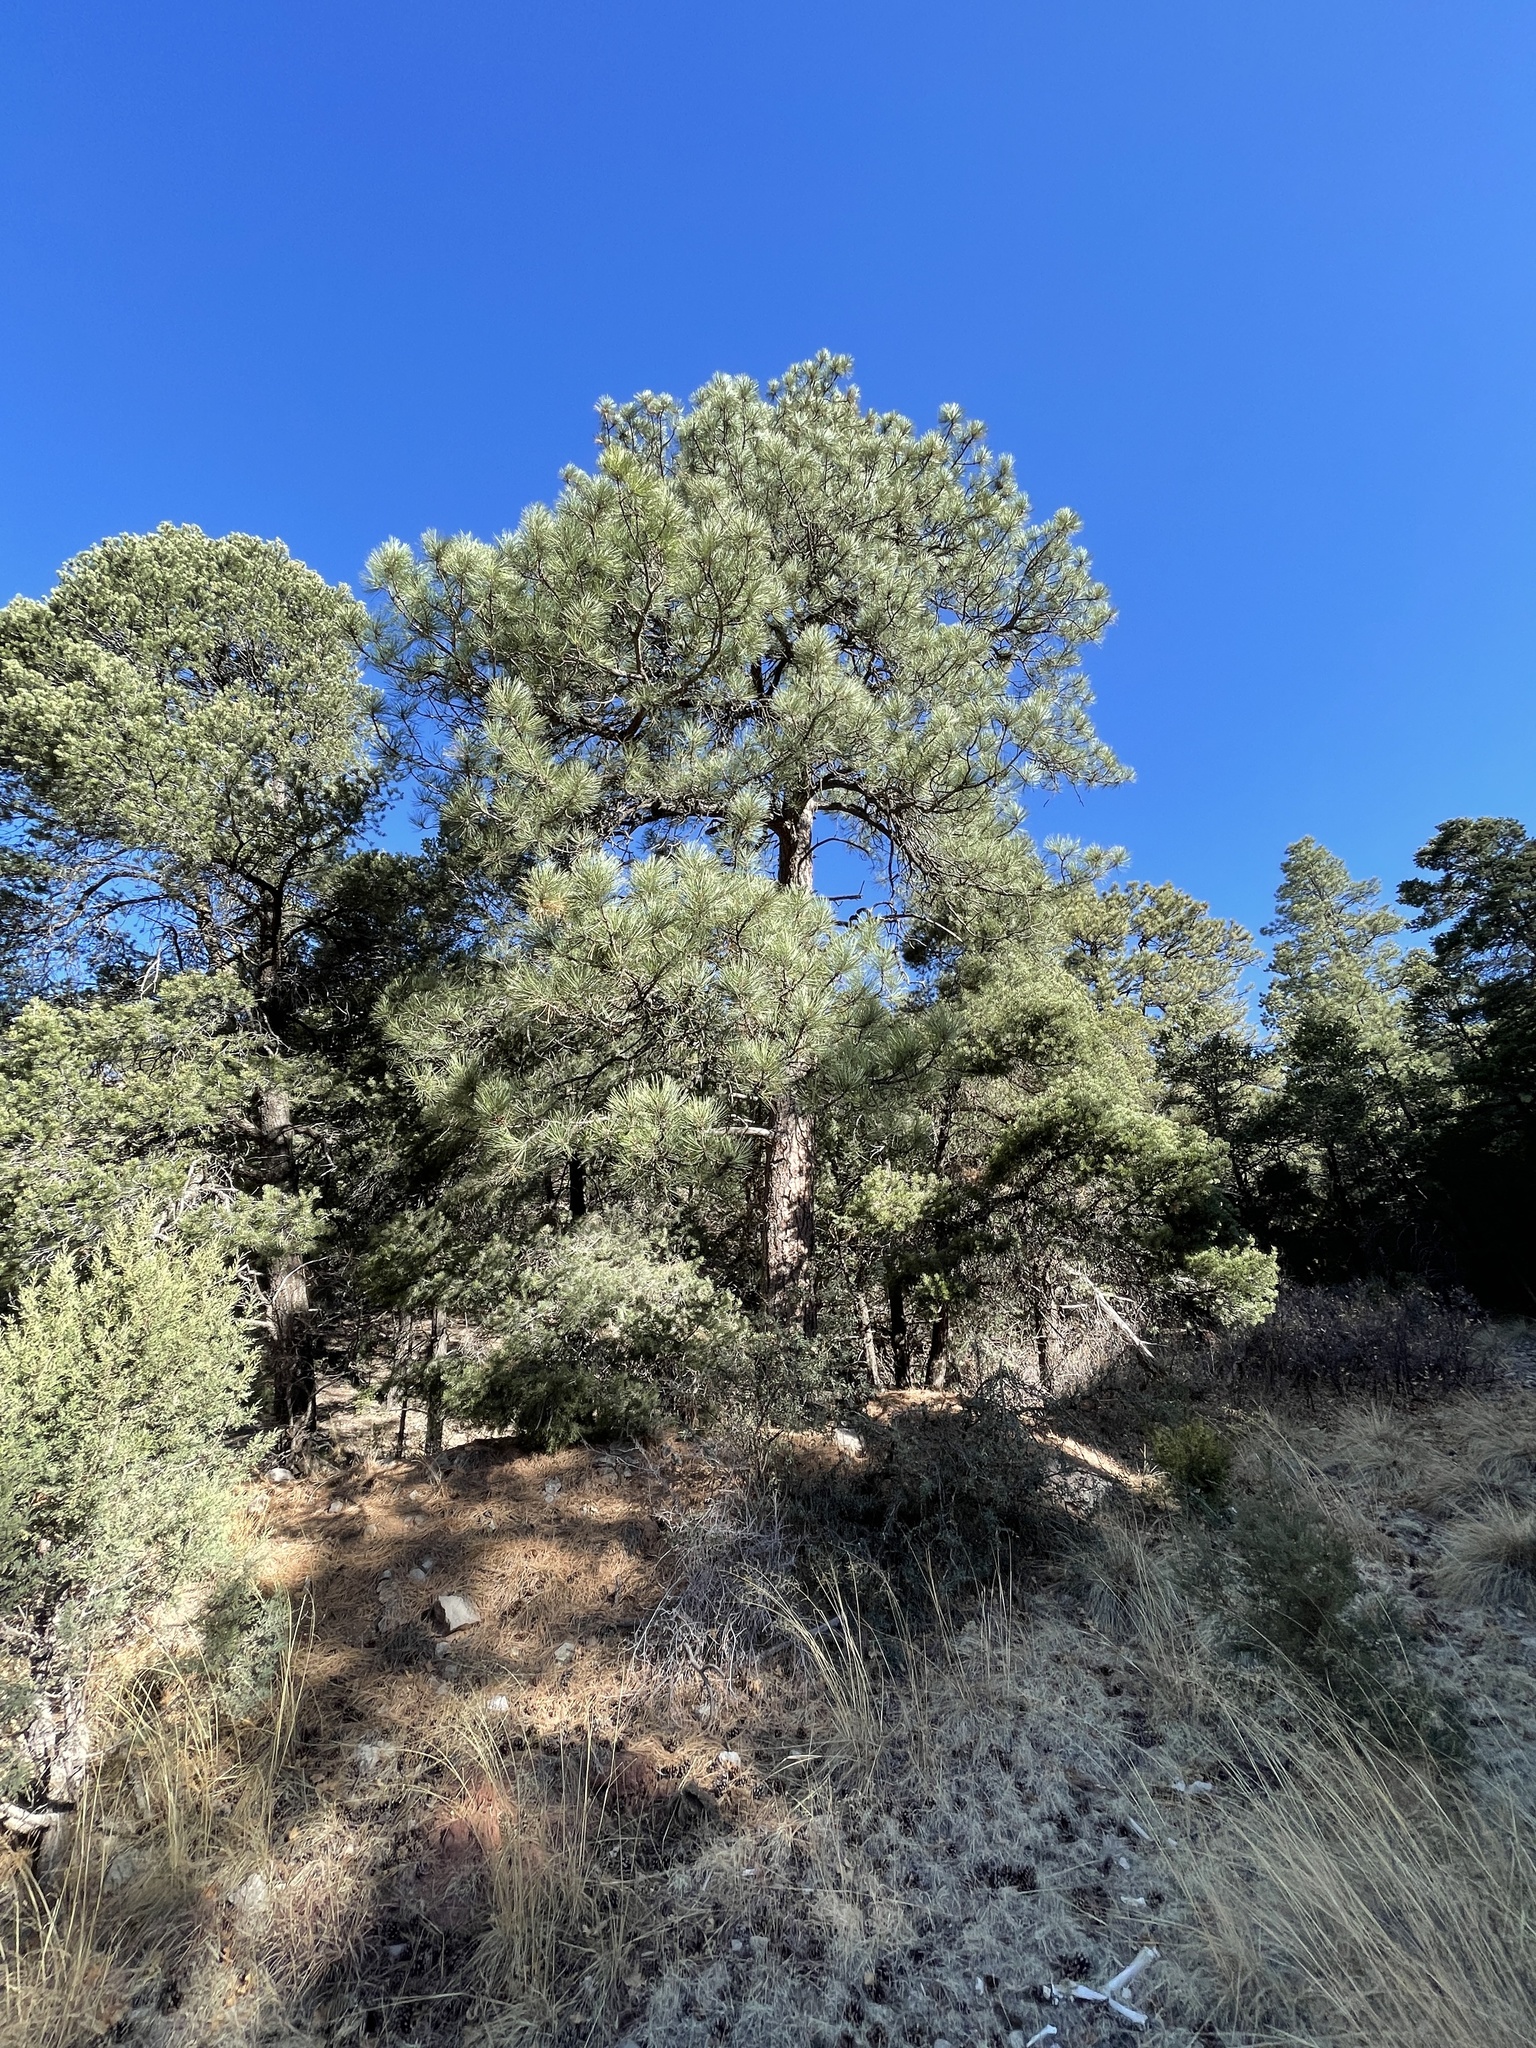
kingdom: Plantae
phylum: Tracheophyta
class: Pinopsida
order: Pinales
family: Pinaceae
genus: Pinus
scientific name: Pinus ponderosa
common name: Western yellow-pine
